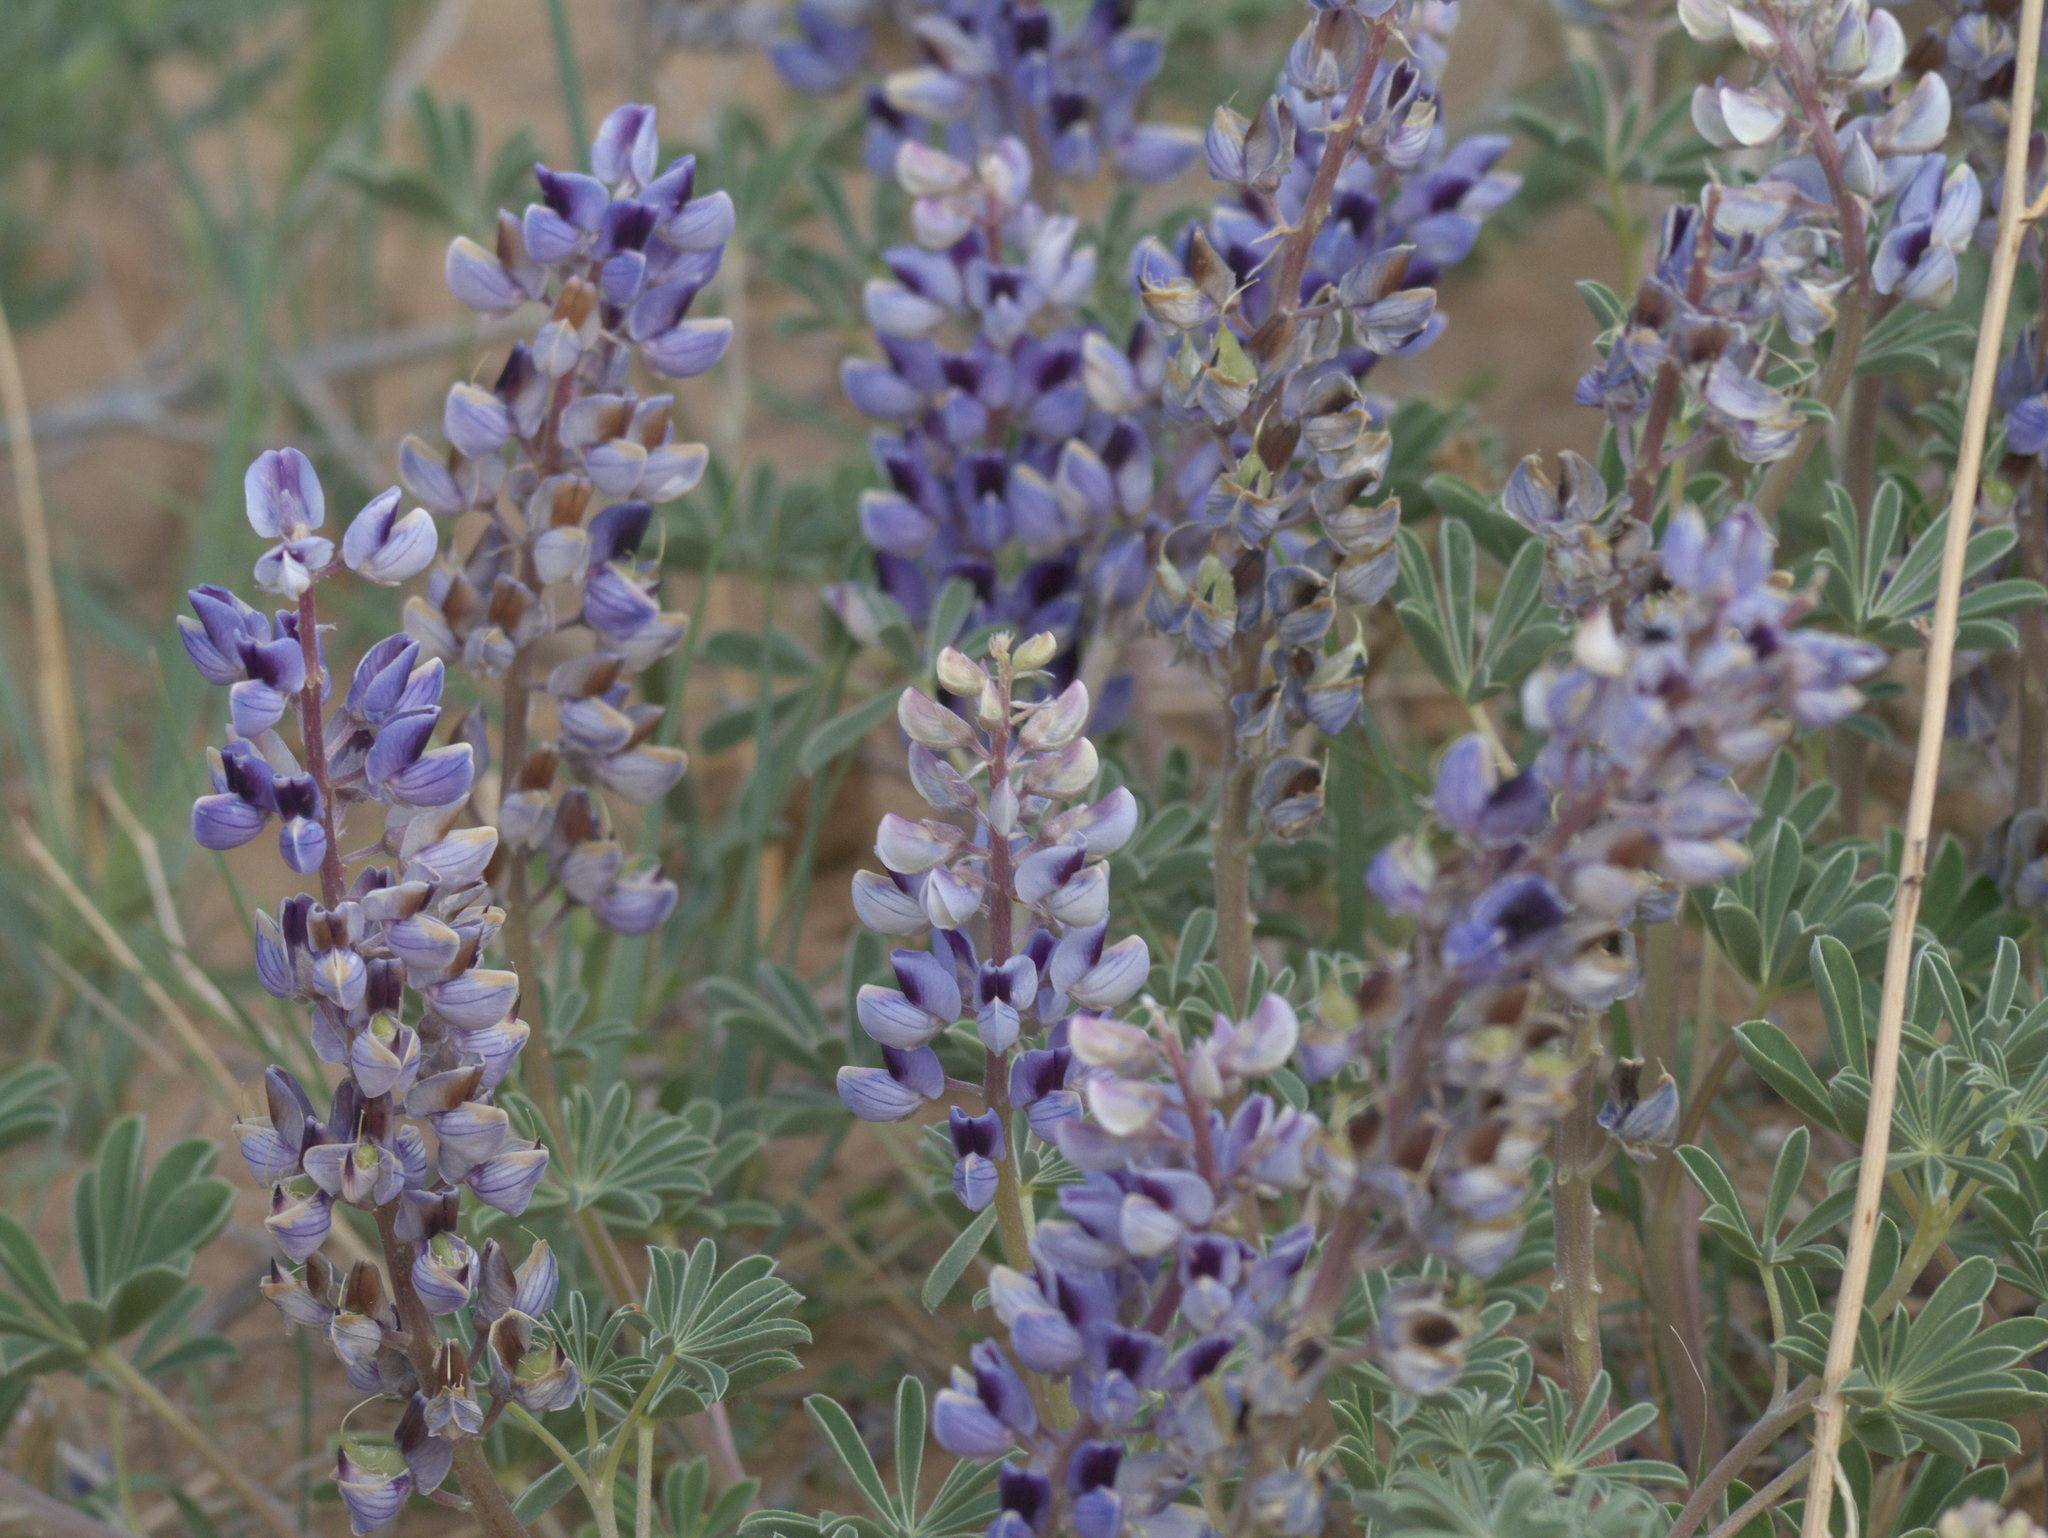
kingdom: Plantae
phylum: Tracheophyta
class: Magnoliopsida
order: Fabales
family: Fabaceae
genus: Lupinus
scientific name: Lupinus plattensis
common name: Platte lupine
